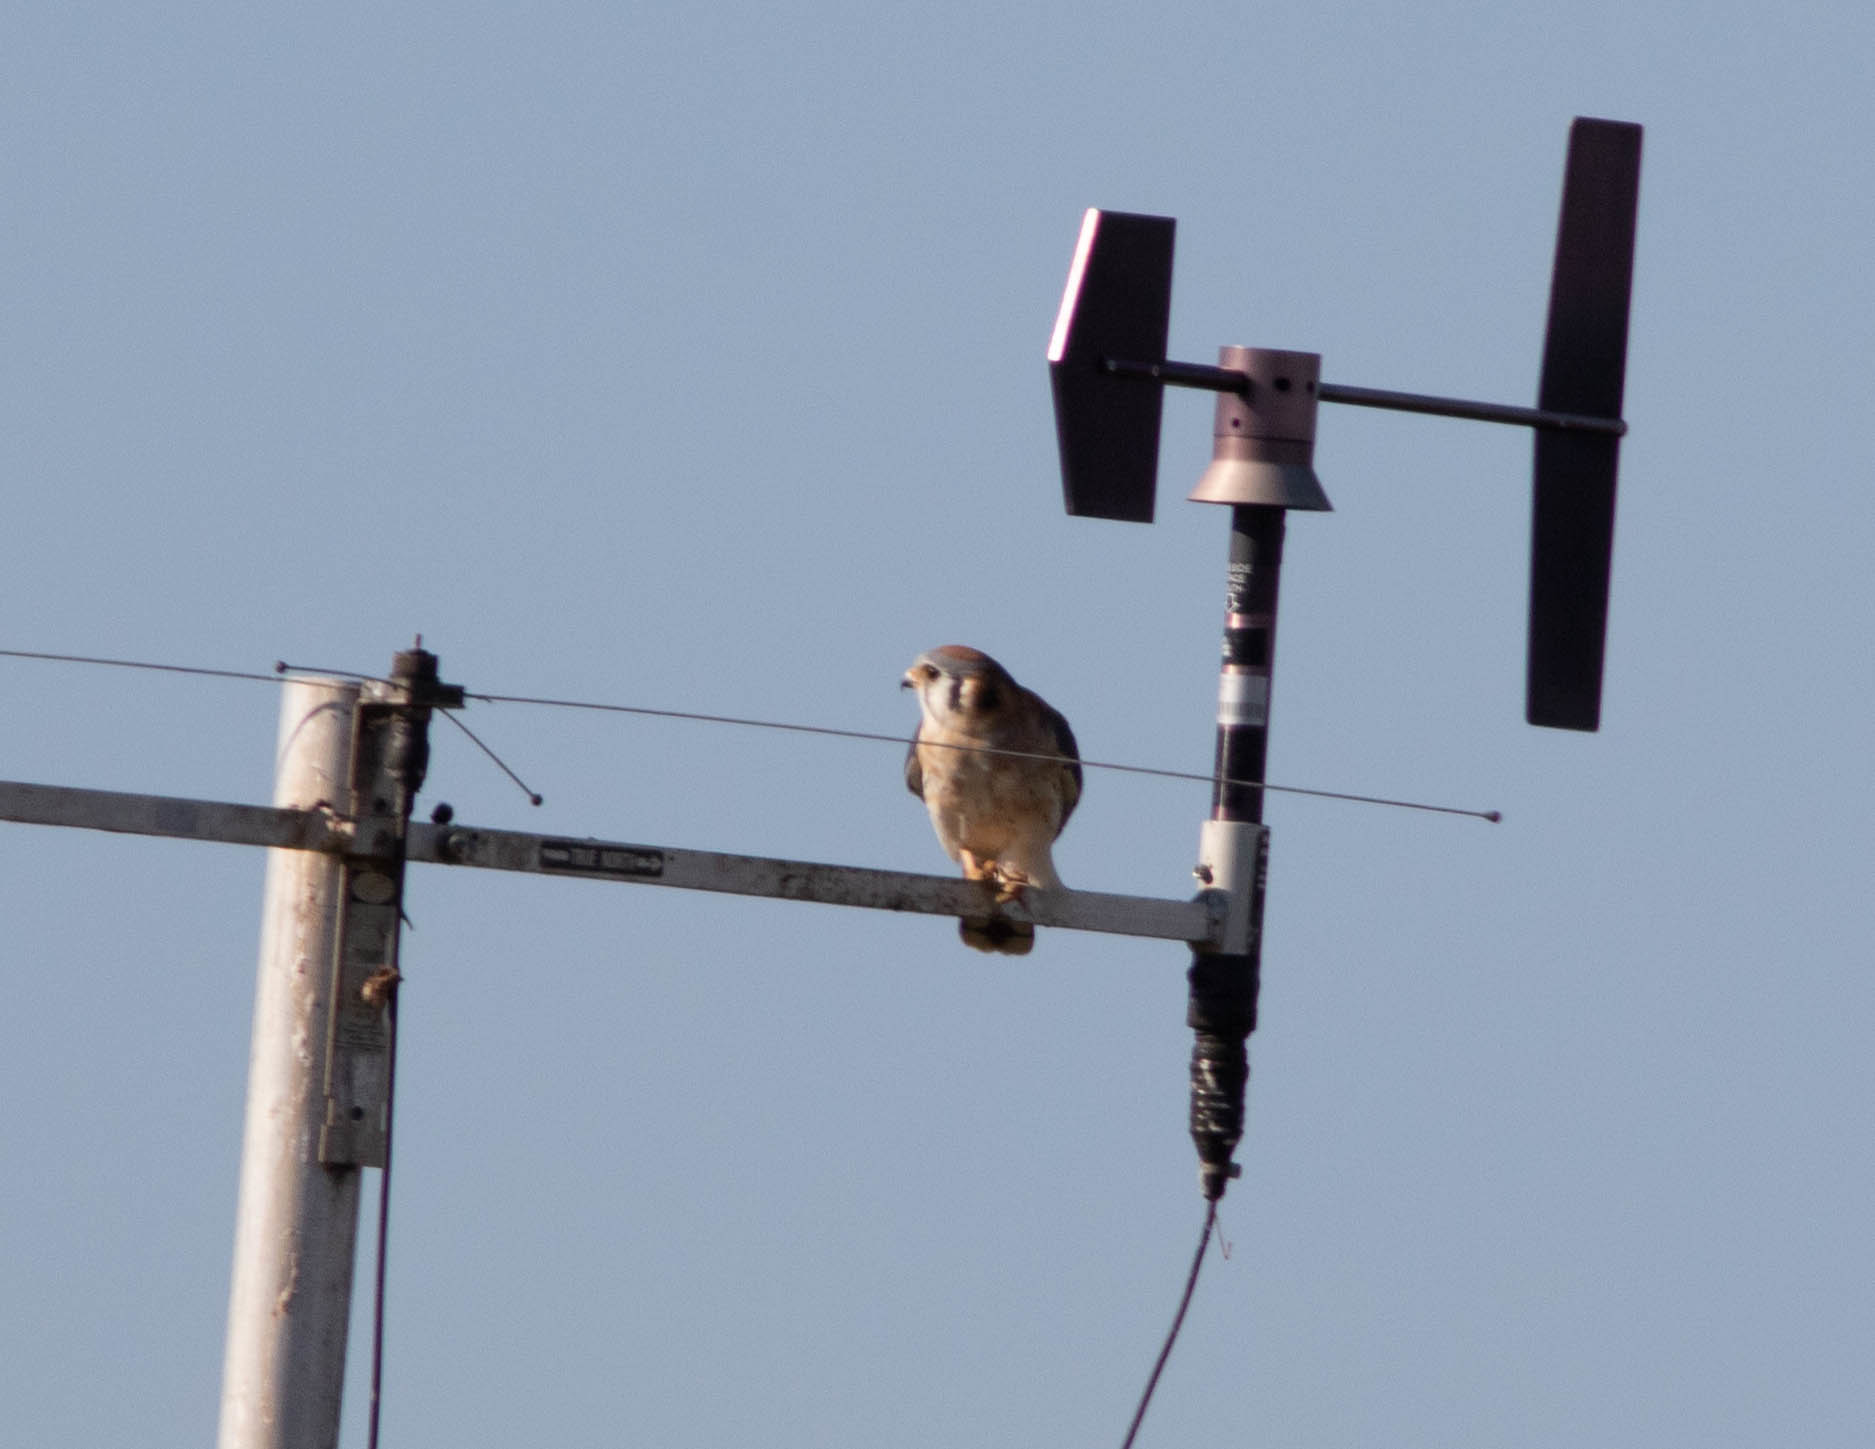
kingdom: Animalia
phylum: Chordata
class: Aves
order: Falconiformes
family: Falconidae
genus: Falco
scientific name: Falco sparverius
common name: American kestrel
